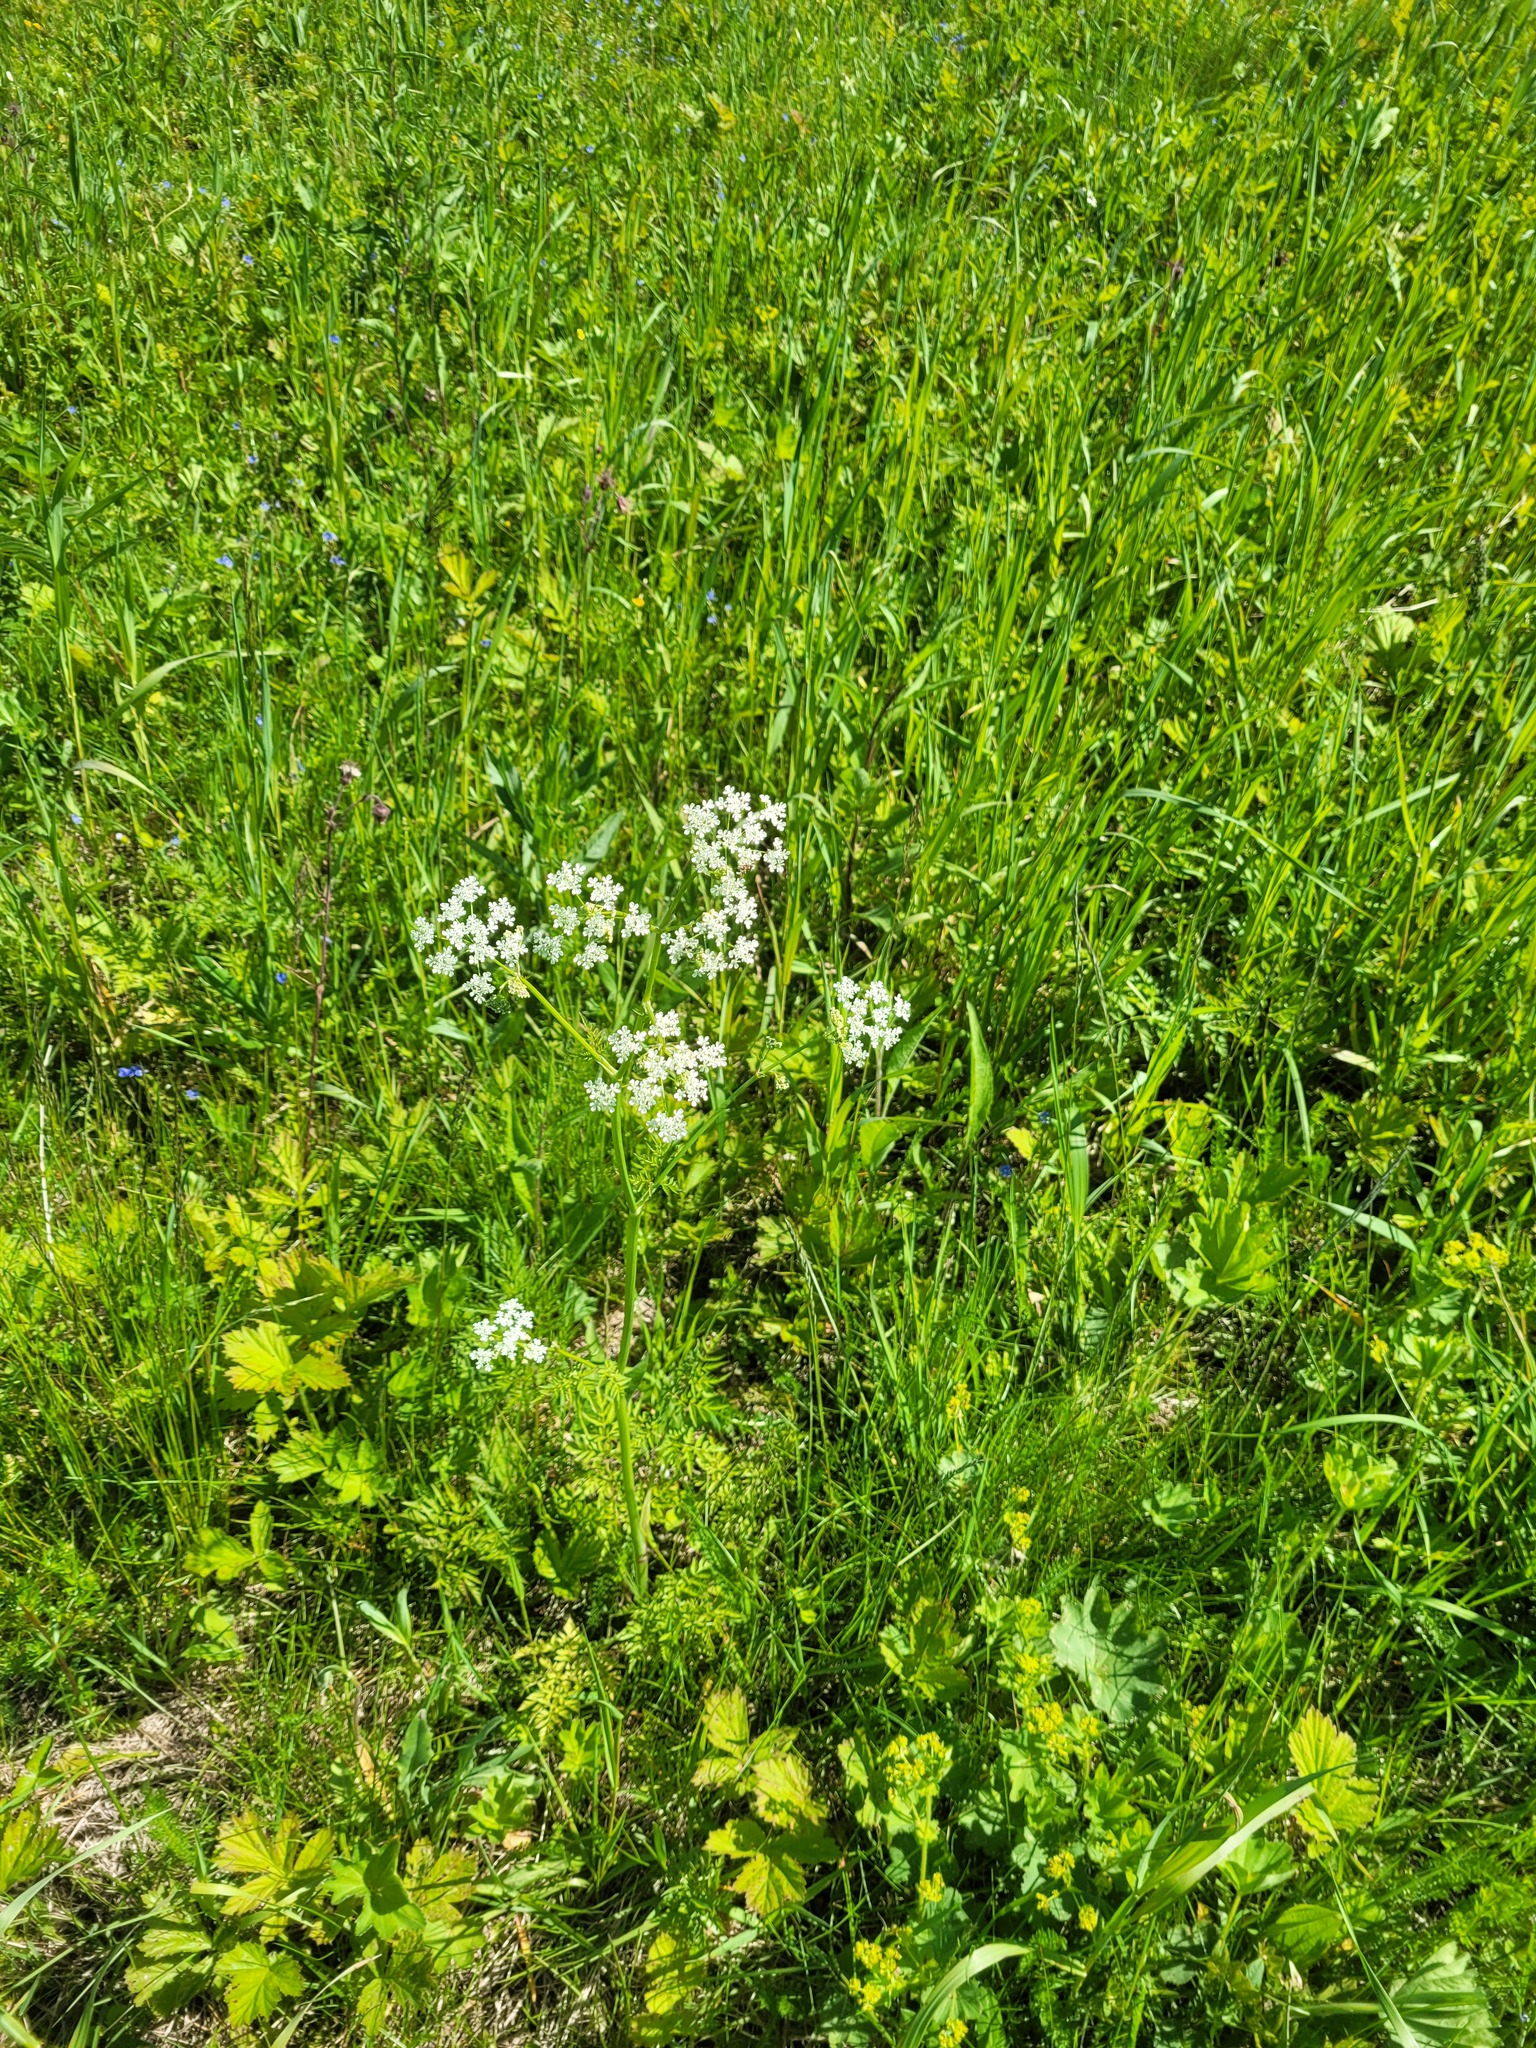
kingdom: Plantae
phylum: Tracheophyta
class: Magnoliopsida
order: Apiales
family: Apiaceae
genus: Anthriscus
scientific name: Anthriscus sylvestris
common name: Cow parsley
